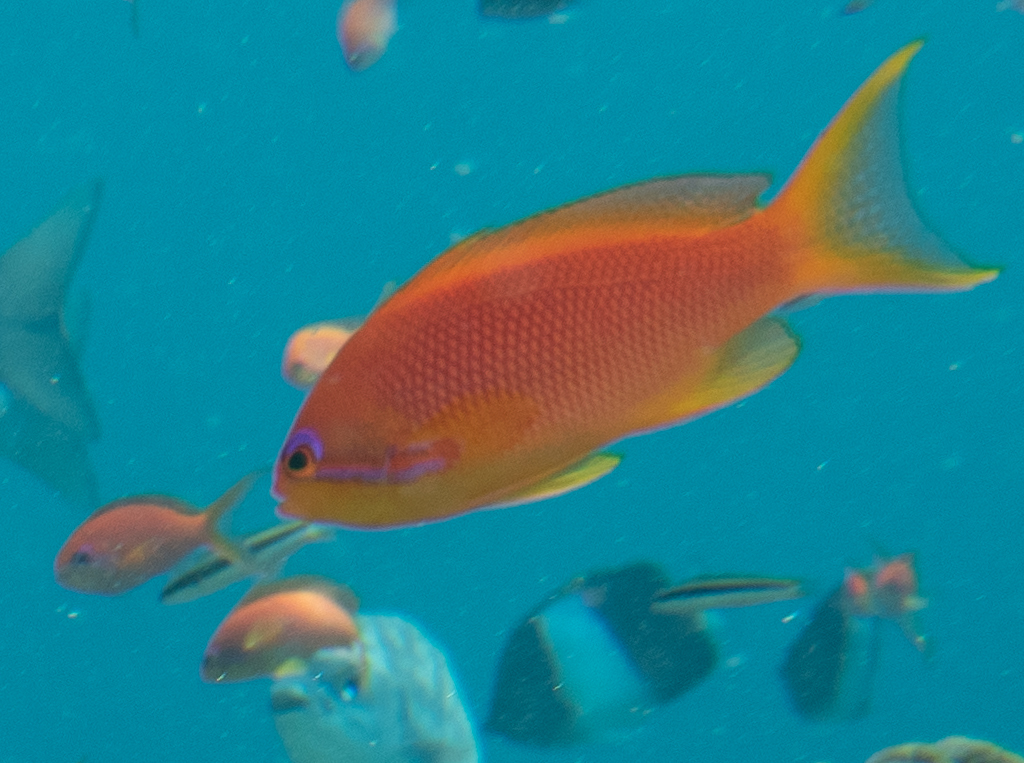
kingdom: Animalia
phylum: Chordata
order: Perciformes
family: Serranidae
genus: Pseudanthias
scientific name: Pseudanthias squamipinnis
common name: Scalefin anthias
